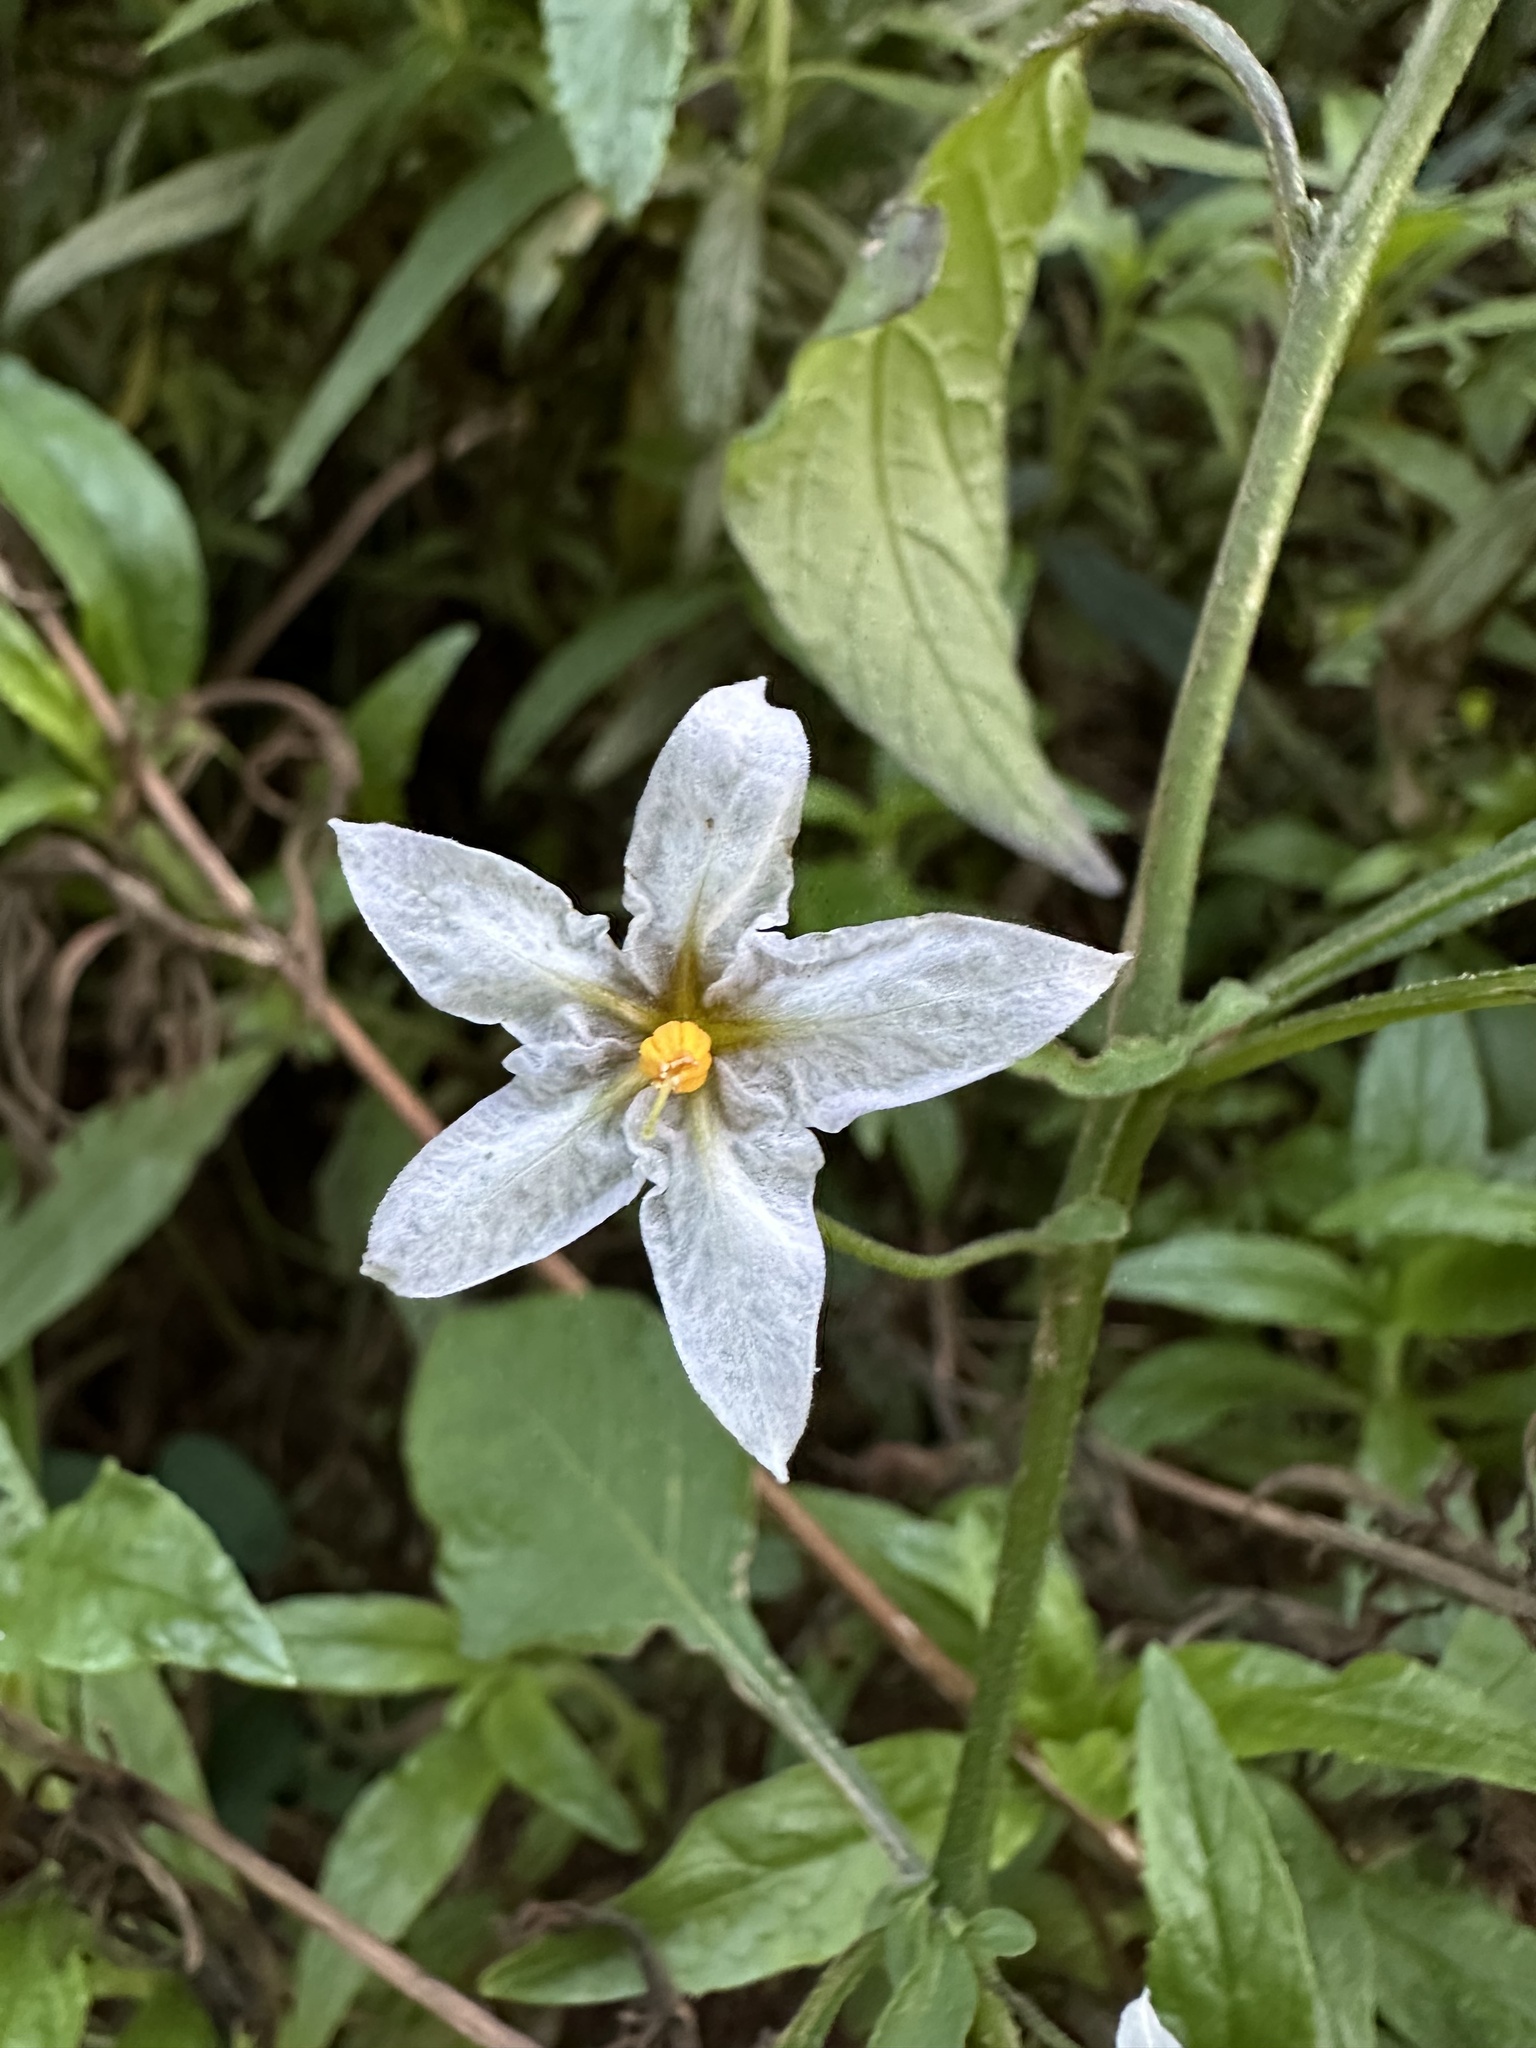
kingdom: Plantae
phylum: Tracheophyta
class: Magnoliopsida
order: Solanales
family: Solanaceae
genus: Solanum
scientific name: Solanum douglasii
